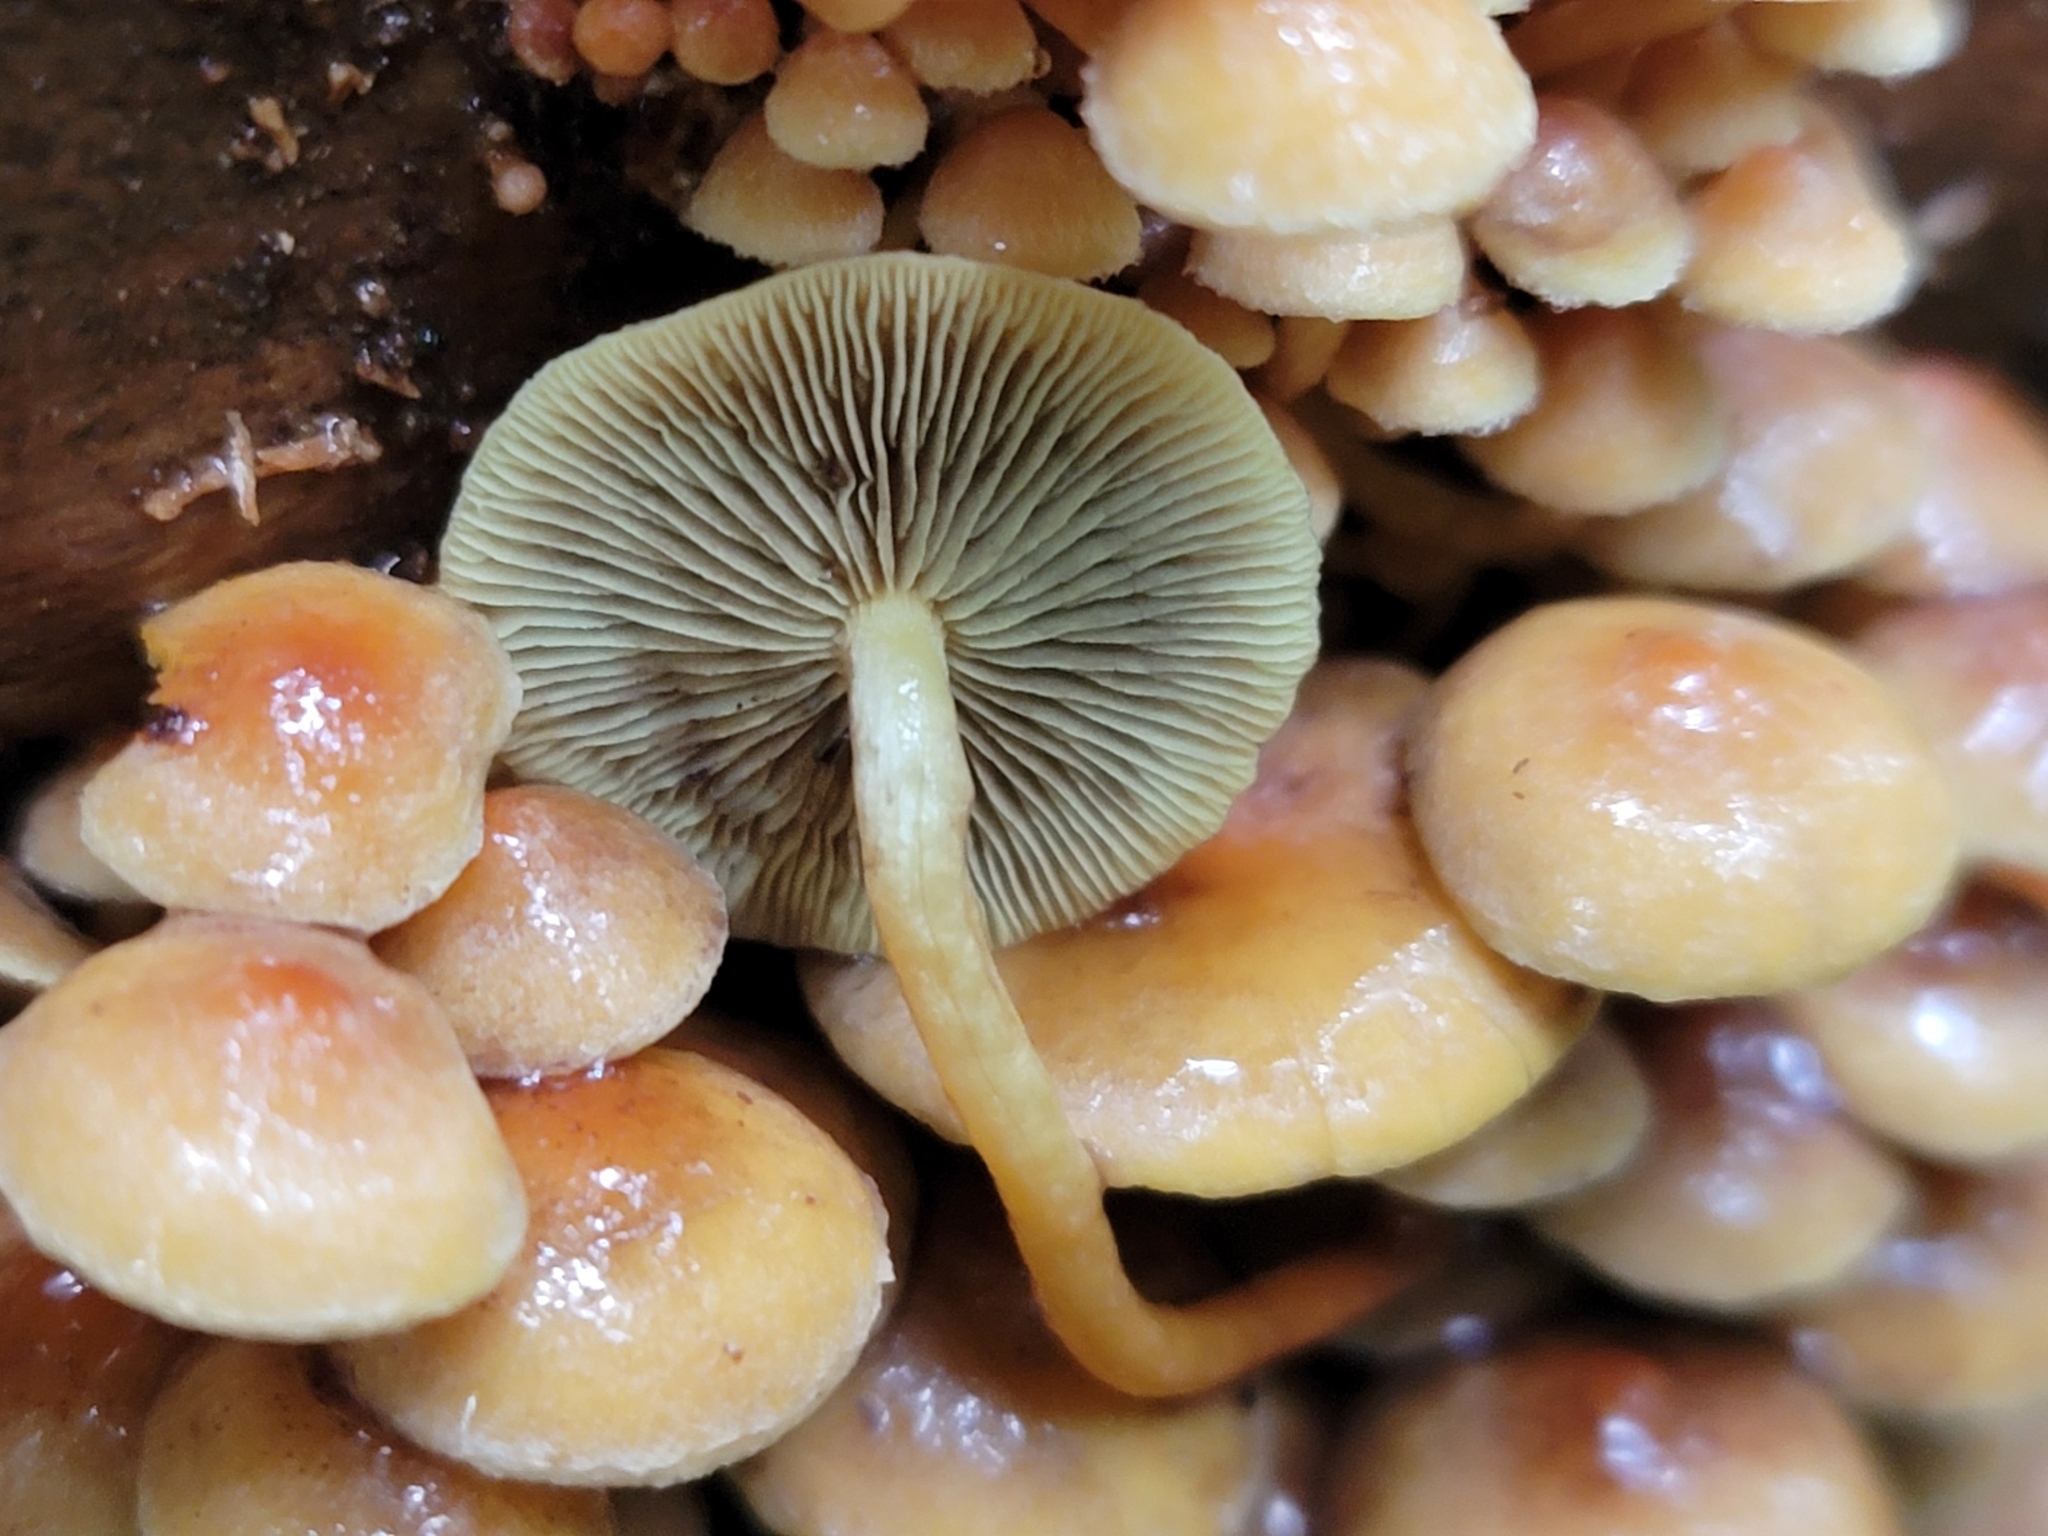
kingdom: Fungi
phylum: Basidiomycota
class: Agaricomycetes
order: Agaricales
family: Strophariaceae
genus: Hypholoma
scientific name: Hypholoma acutum
